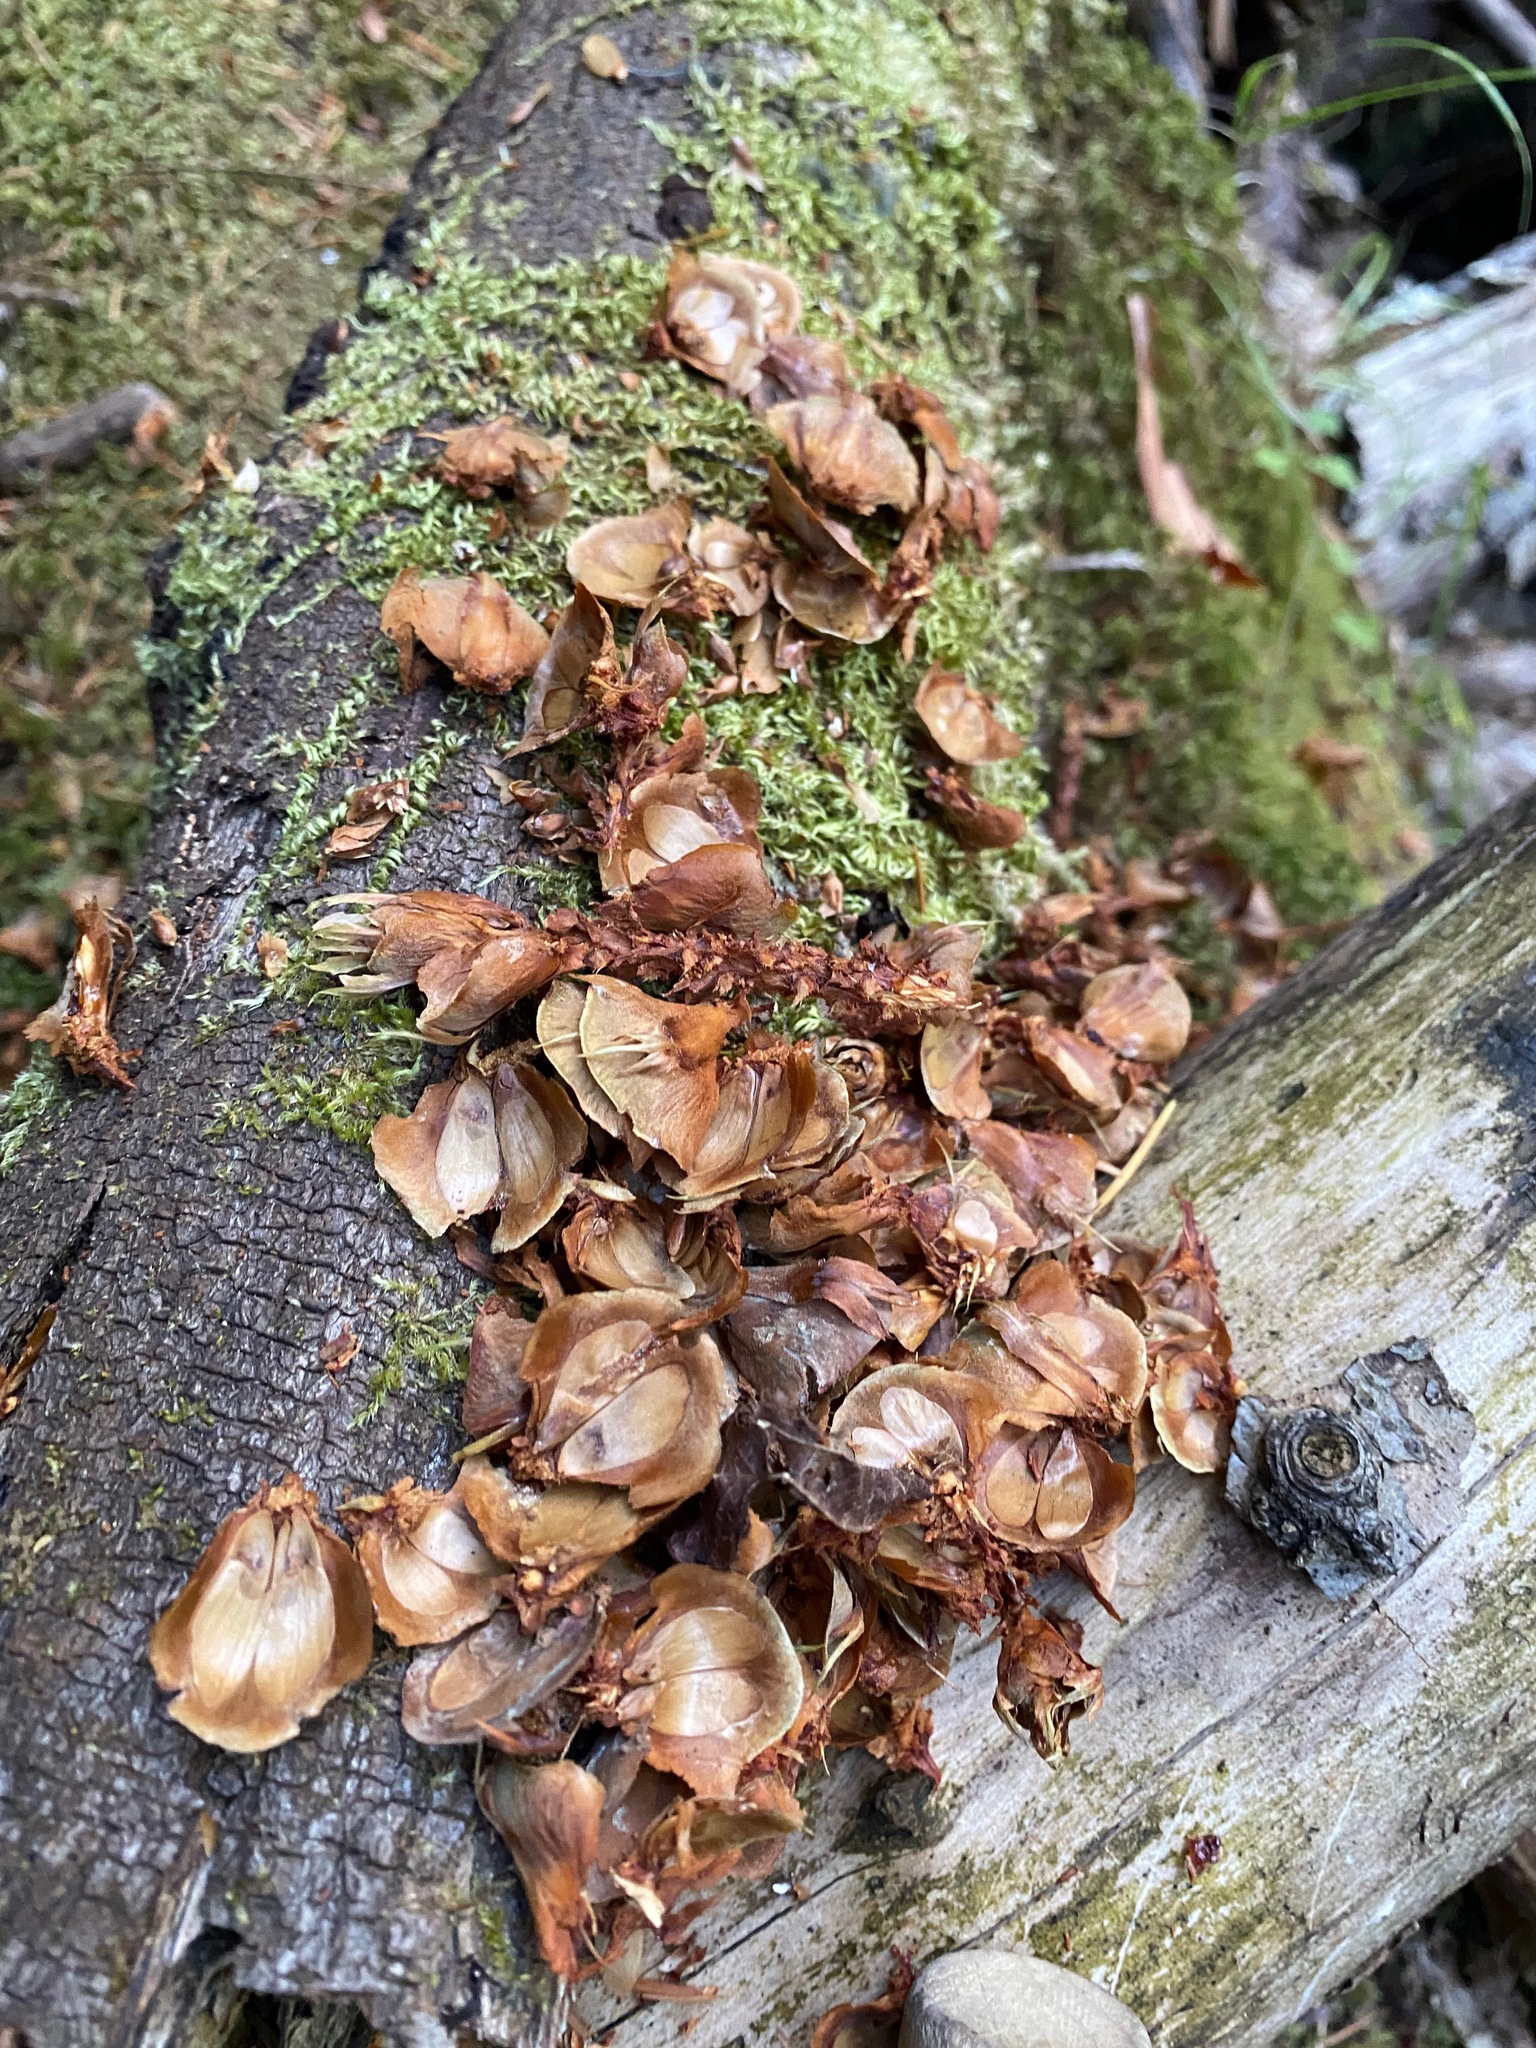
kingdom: Animalia
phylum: Chordata
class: Mammalia
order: Rodentia
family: Sciuridae
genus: Tamiasciurus
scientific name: Tamiasciurus hudsonicus
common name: Red squirrel
